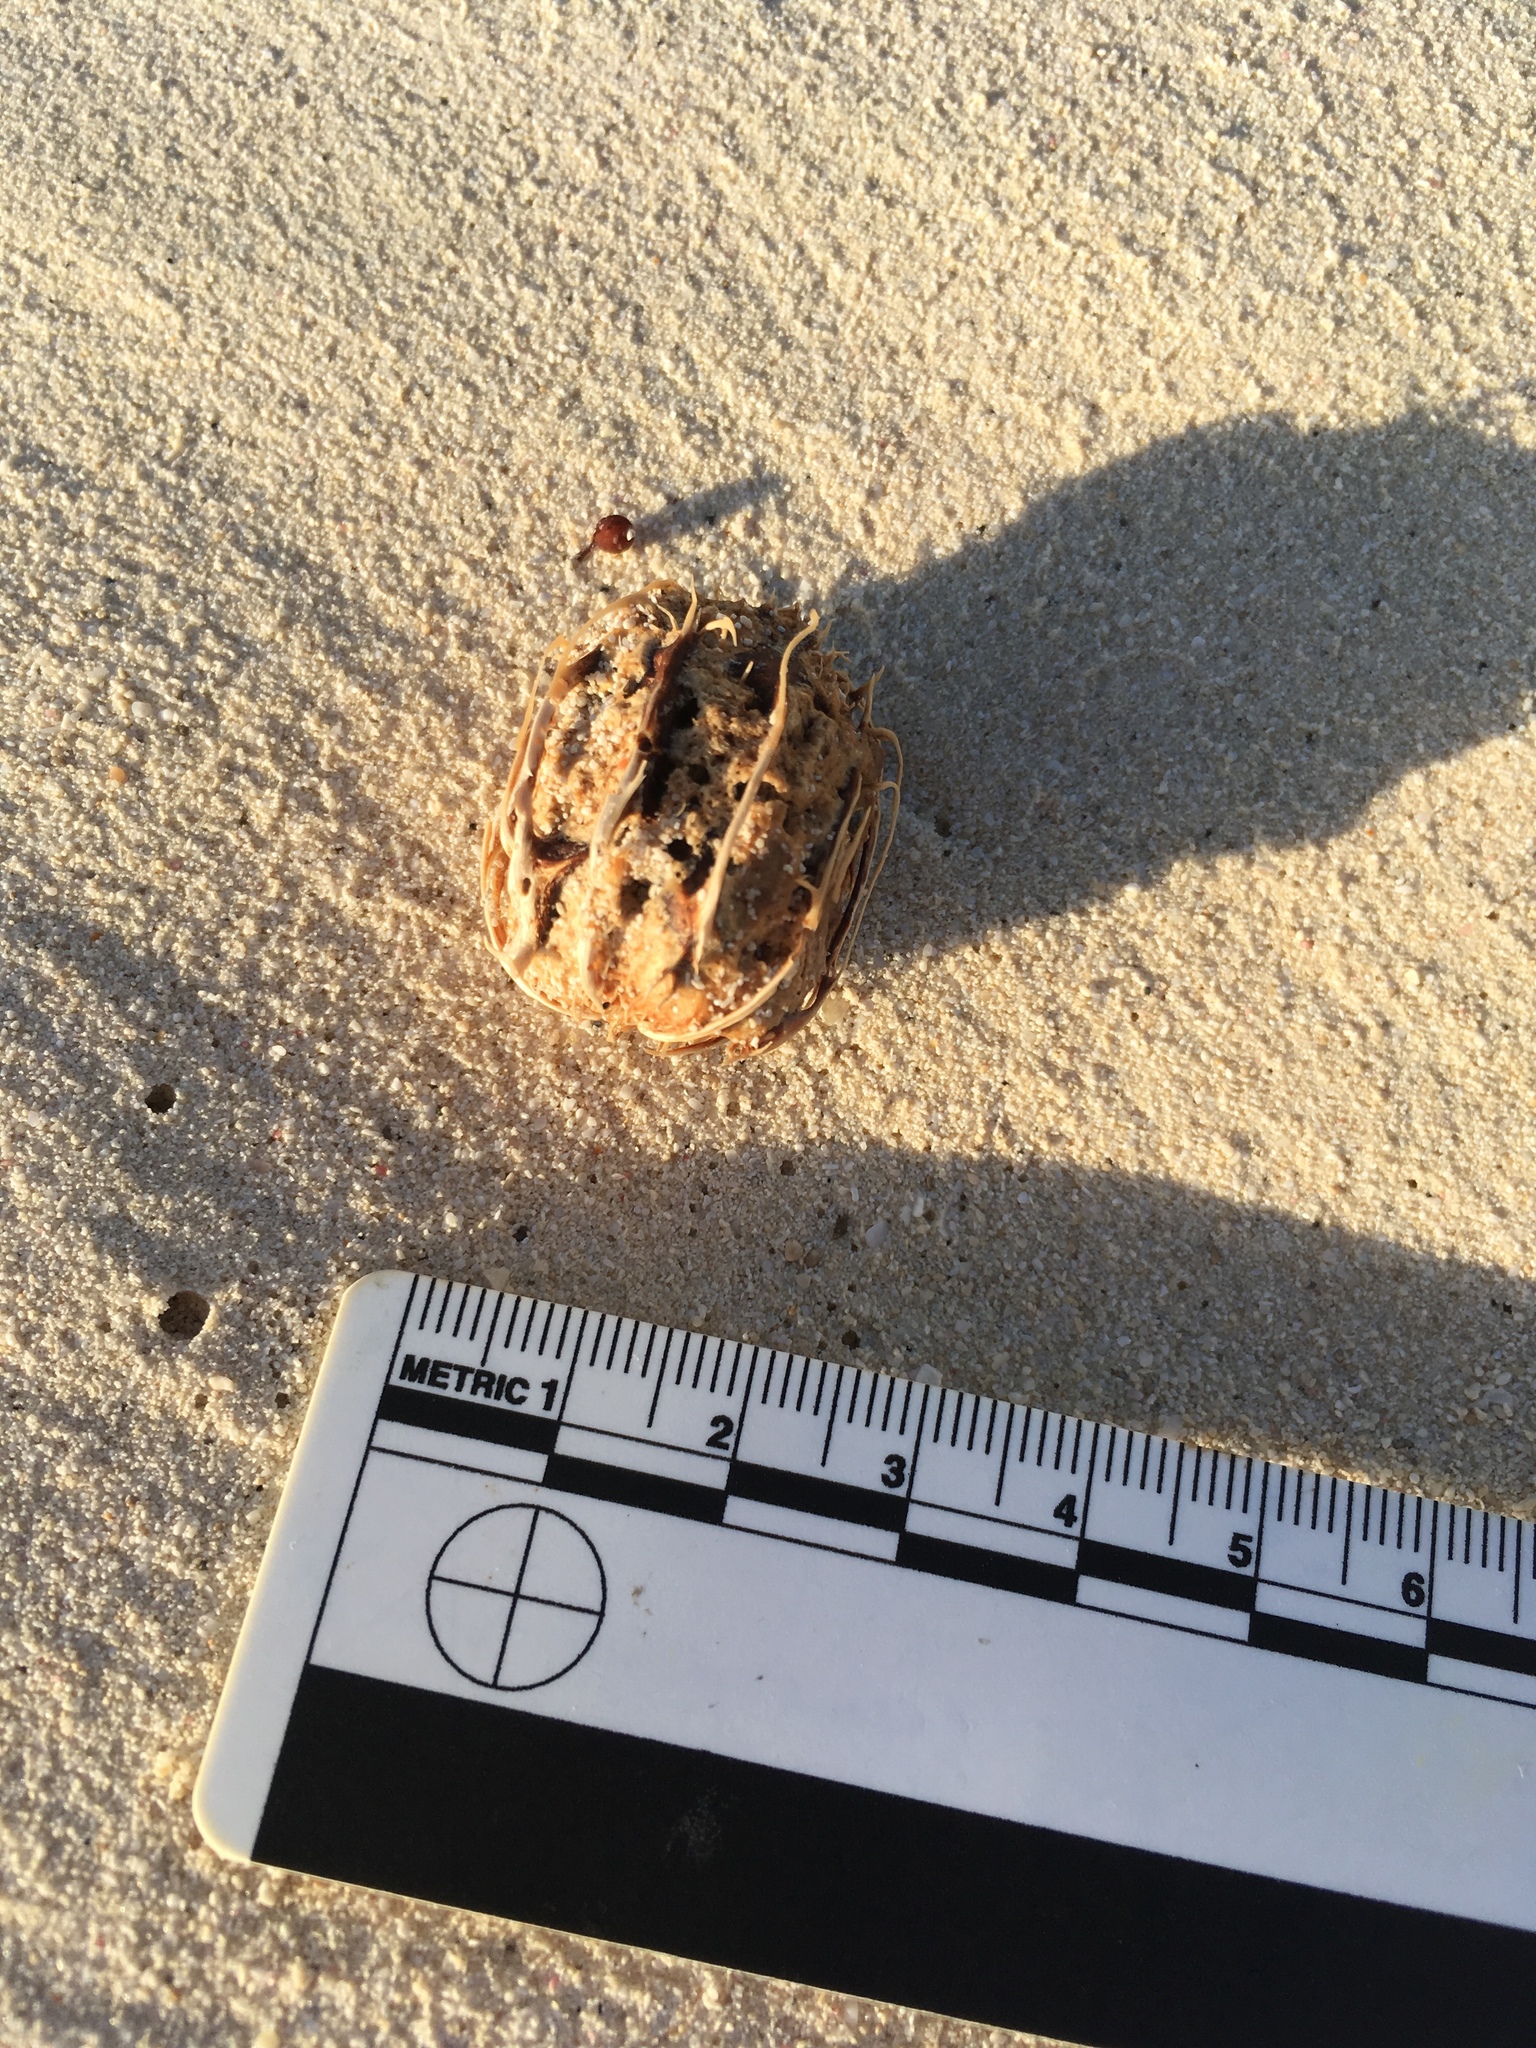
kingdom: Plantae
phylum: Tracheophyta
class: Magnoliopsida
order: Sapindales
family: Anacardiaceae
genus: Spondias
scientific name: Spondias mombin
